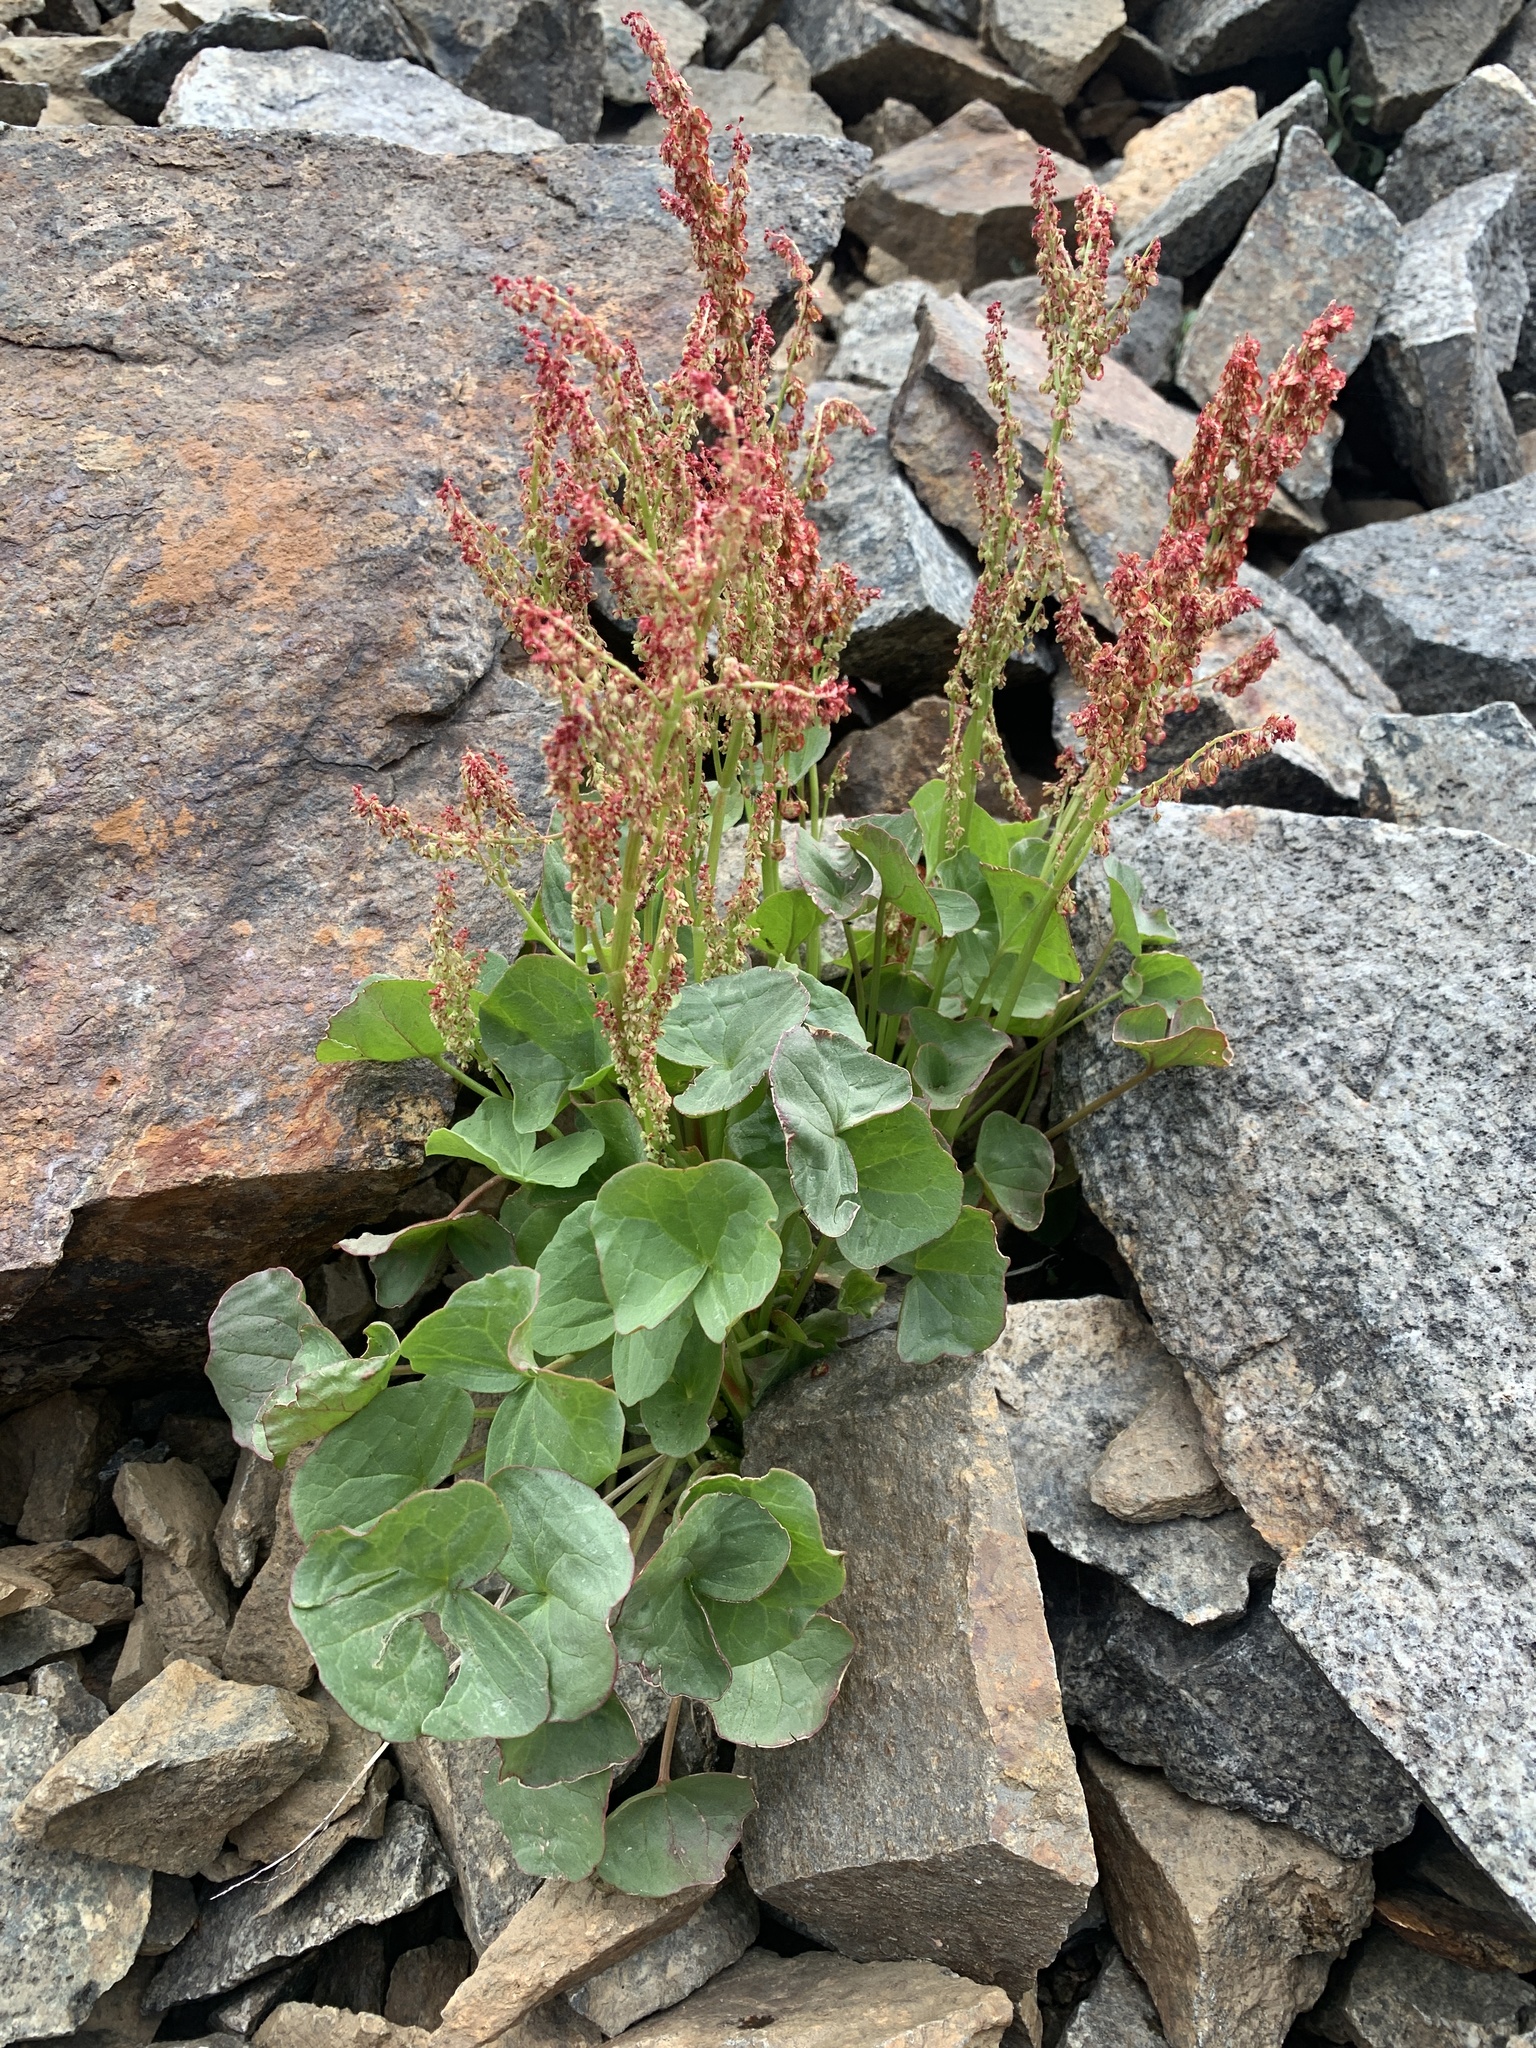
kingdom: Plantae
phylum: Tracheophyta
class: Magnoliopsida
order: Caryophyllales
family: Polygonaceae
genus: Oxyria
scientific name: Oxyria digyna
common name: Alpine mountain-sorrel
